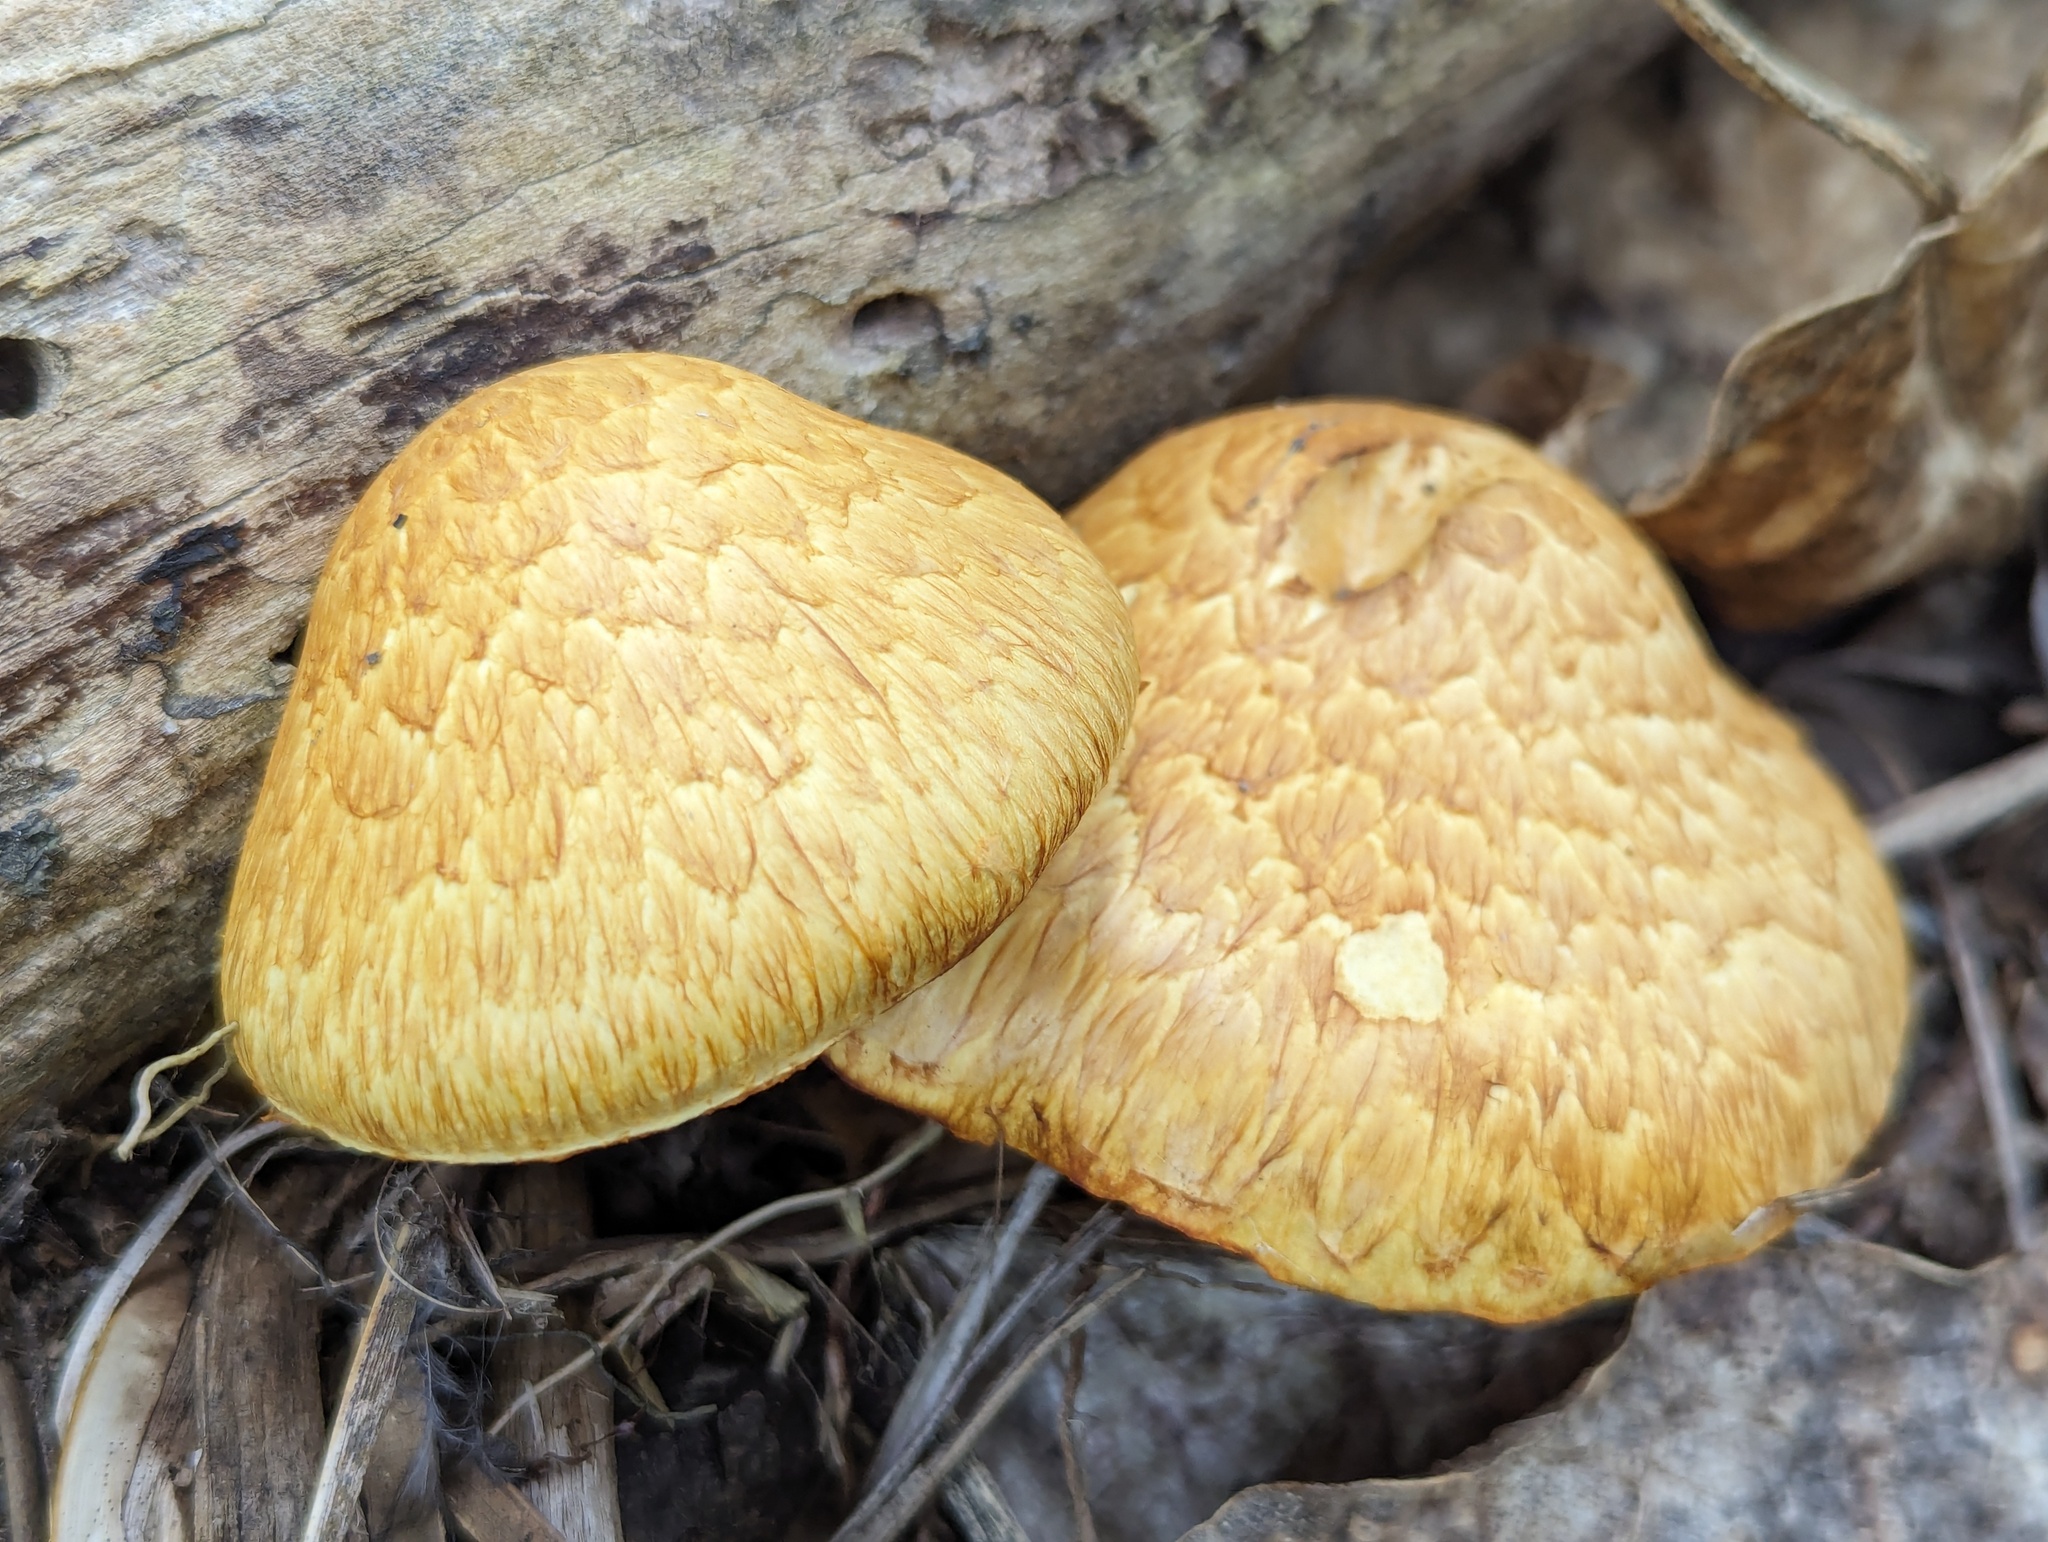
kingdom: Fungi
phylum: Basidiomycota
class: Agaricomycetes
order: Agaricales
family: Hymenogastraceae
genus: Gymnopilus
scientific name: Gymnopilus junonius
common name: Spectacular rustgill
